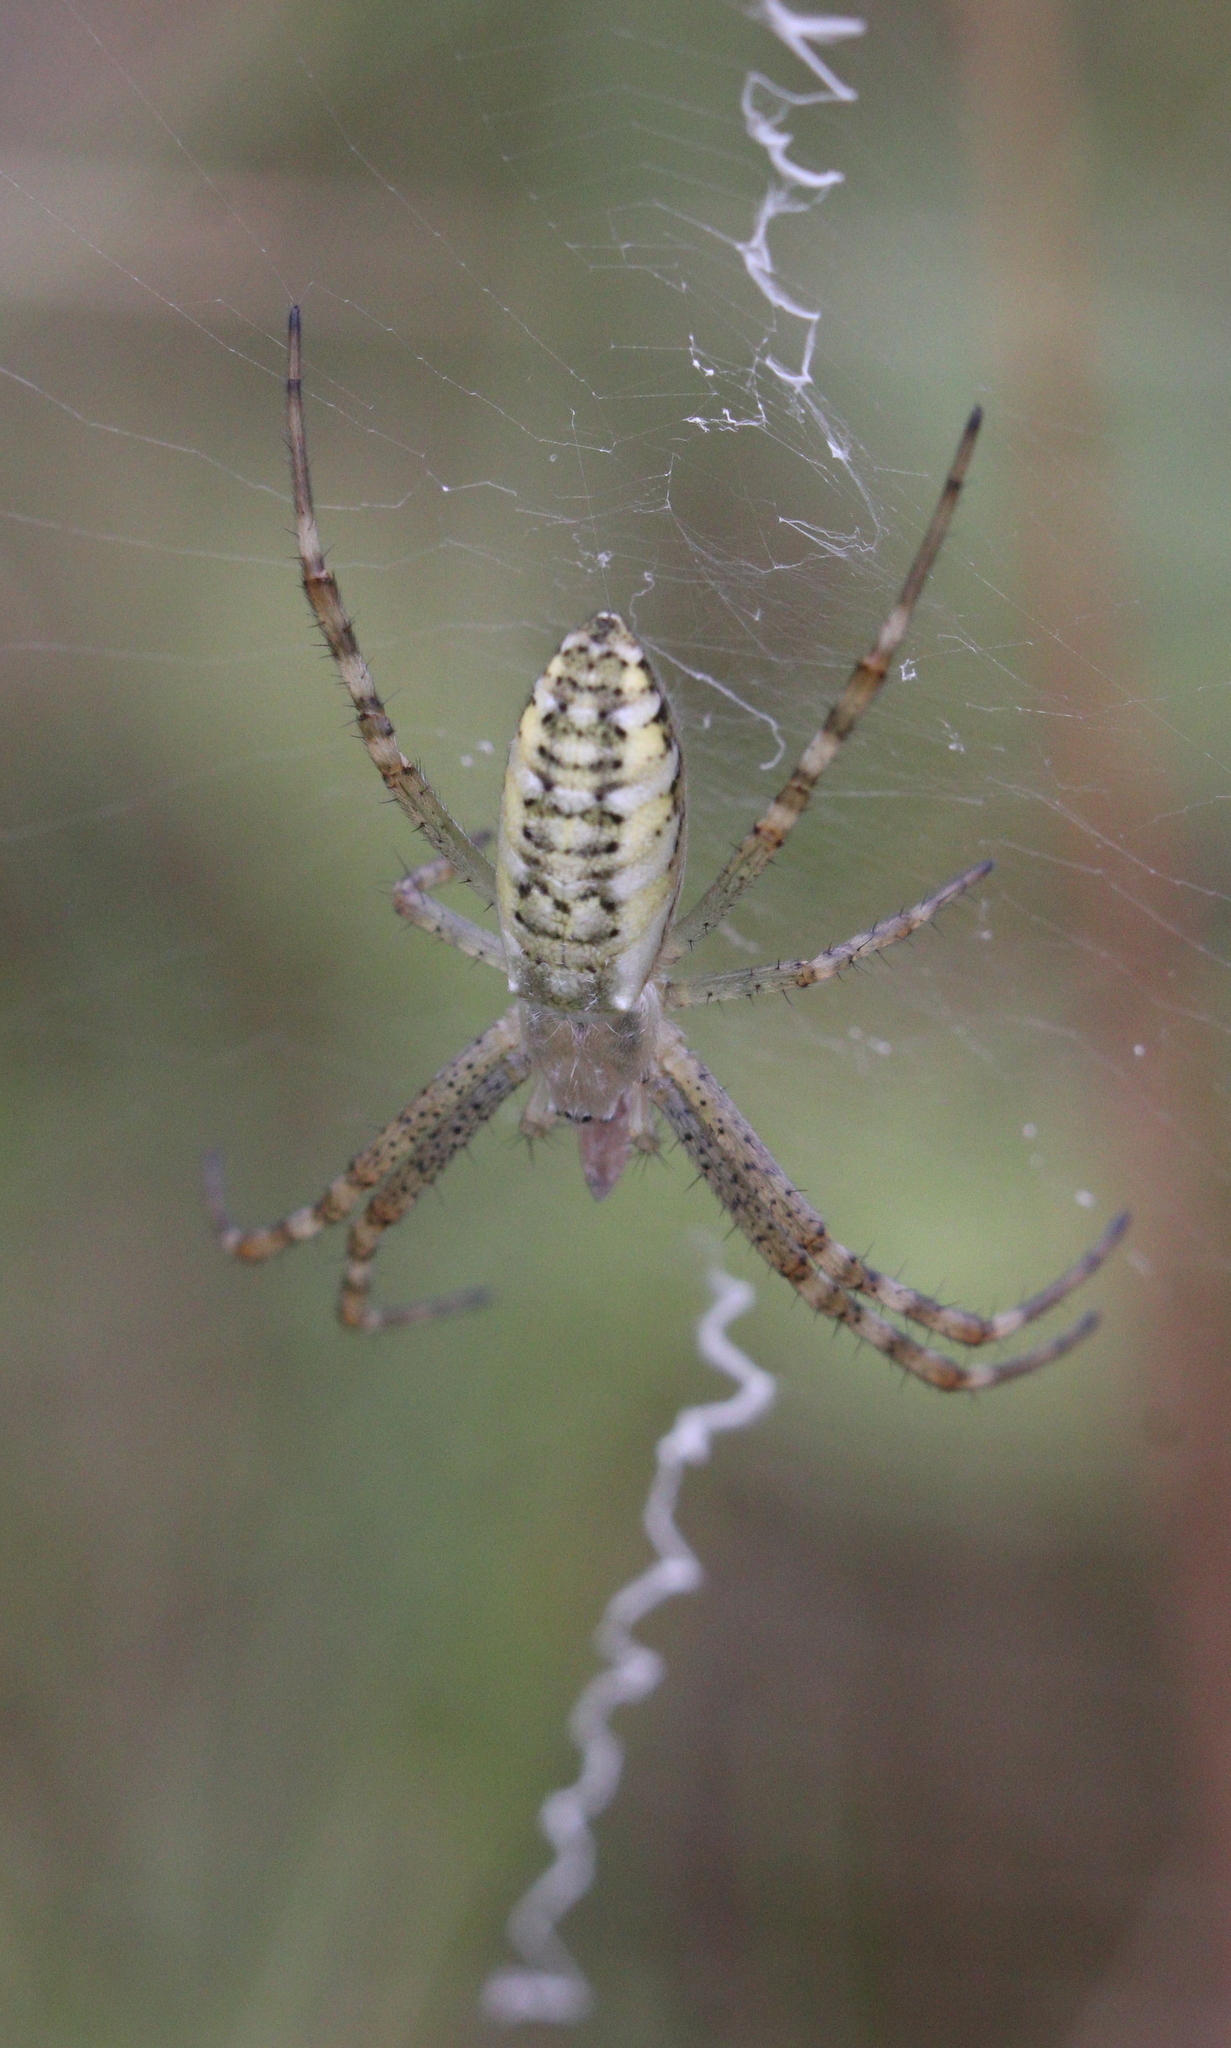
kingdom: Animalia
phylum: Arthropoda
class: Arachnida
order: Araneae
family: Araneidae
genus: Argiope
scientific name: Argiope bruennichi
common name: Wasp spider
